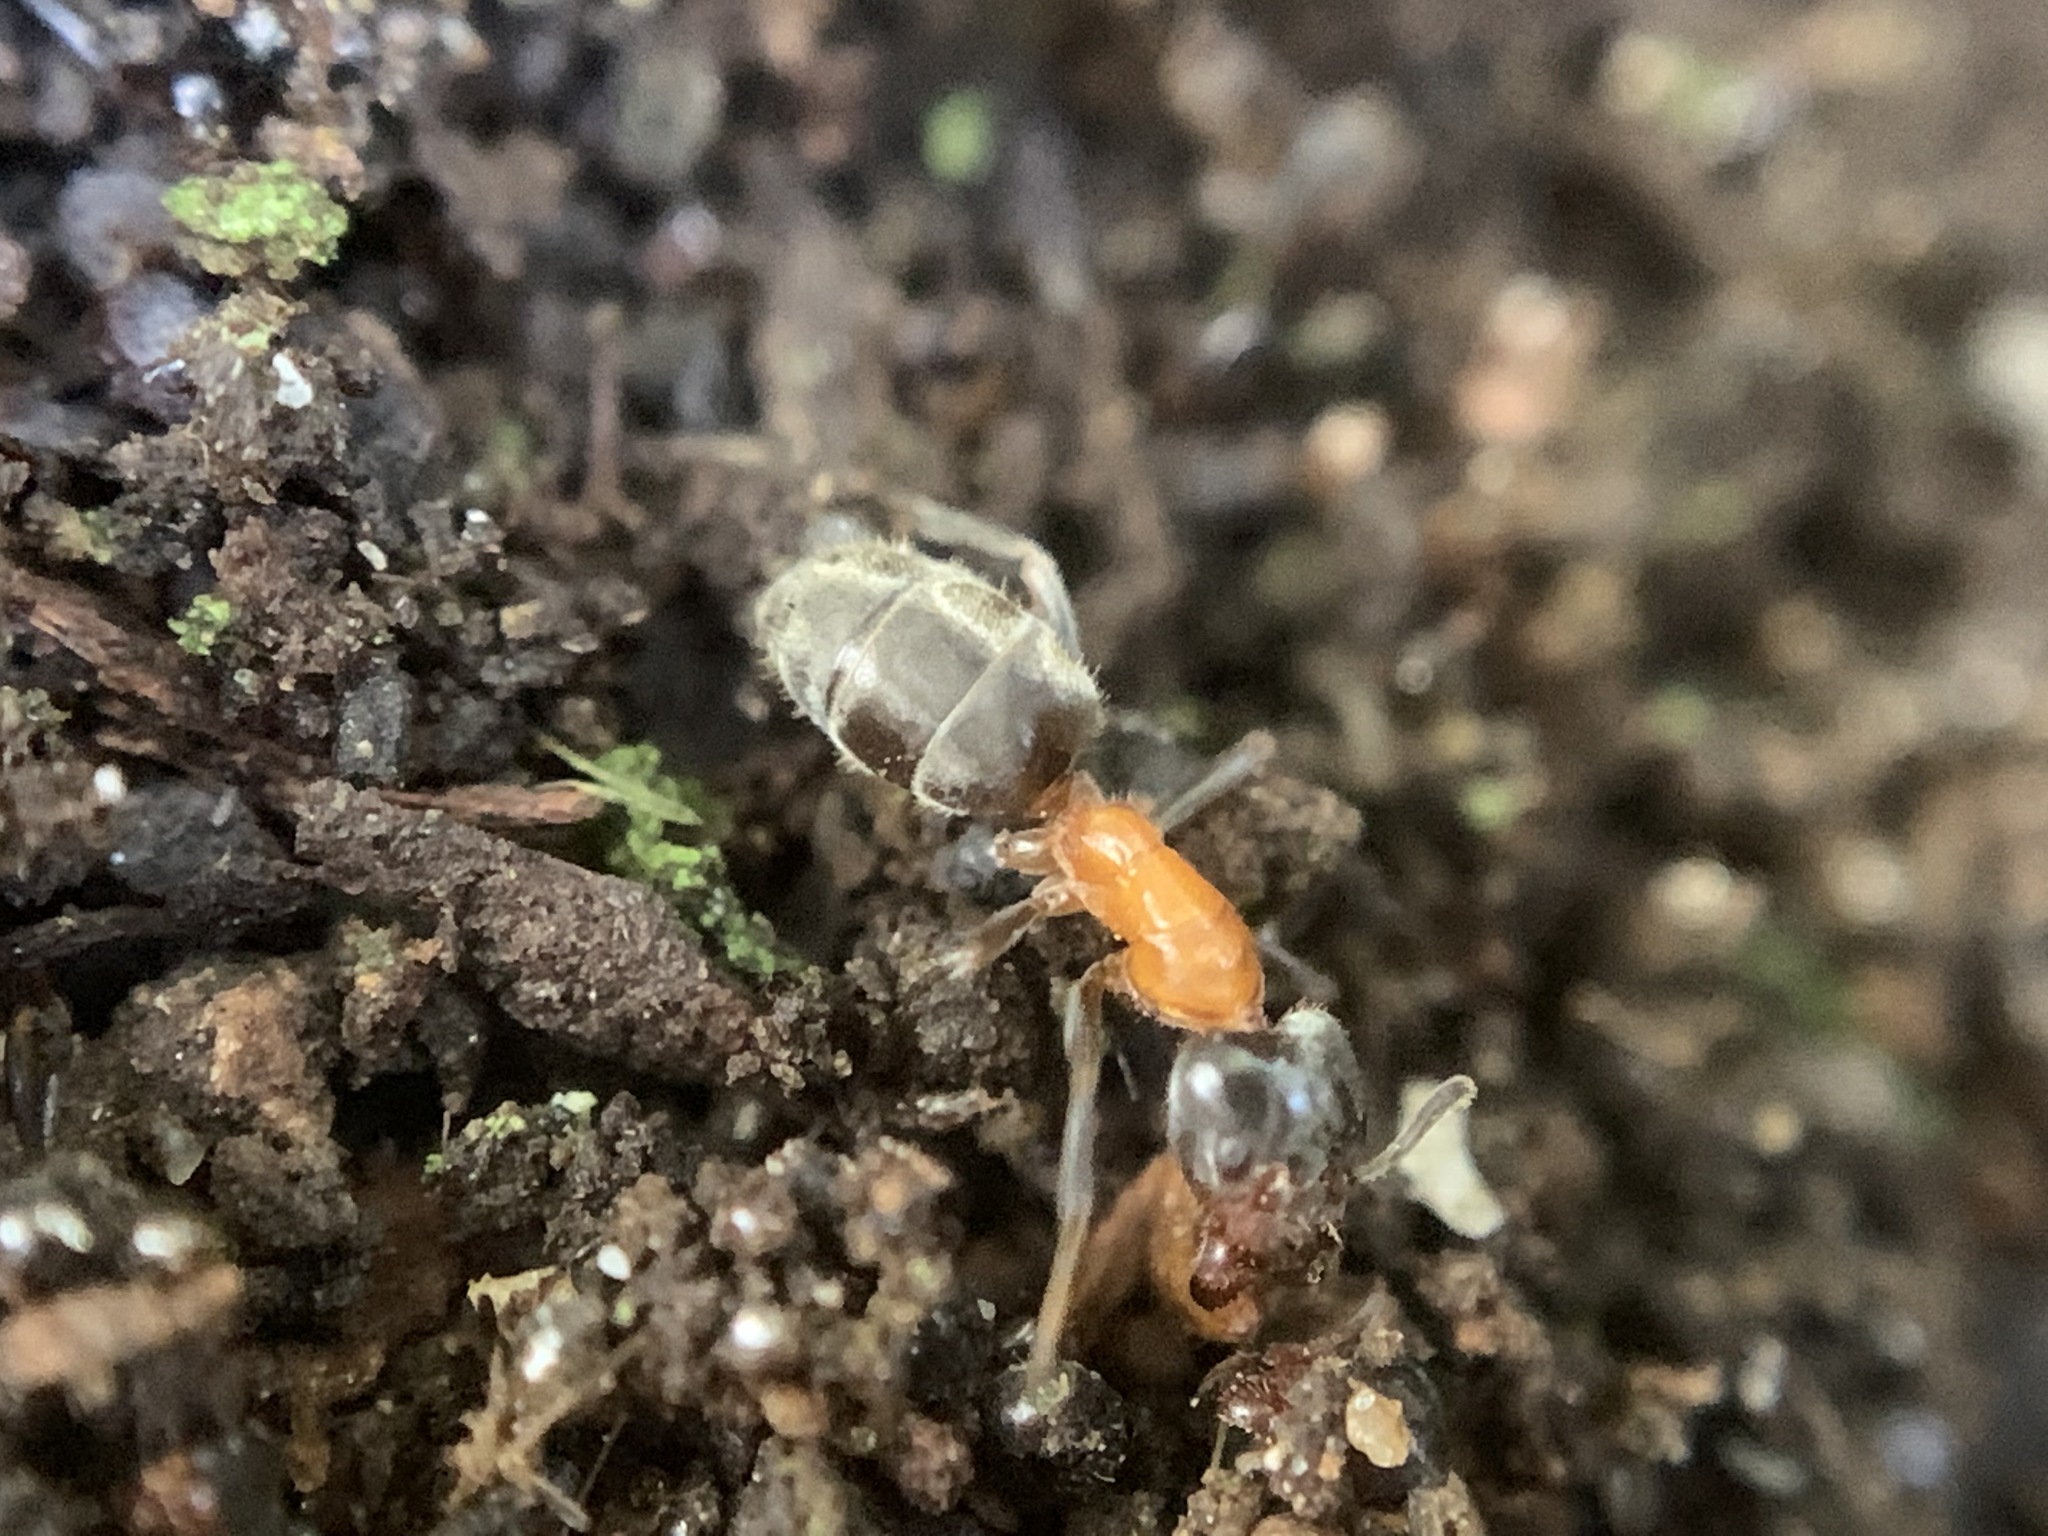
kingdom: Animalia
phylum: Arthropoda
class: Insecta
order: Hymenoptera
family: Formicidae
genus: Liometopum
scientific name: Liometopum occidentale
